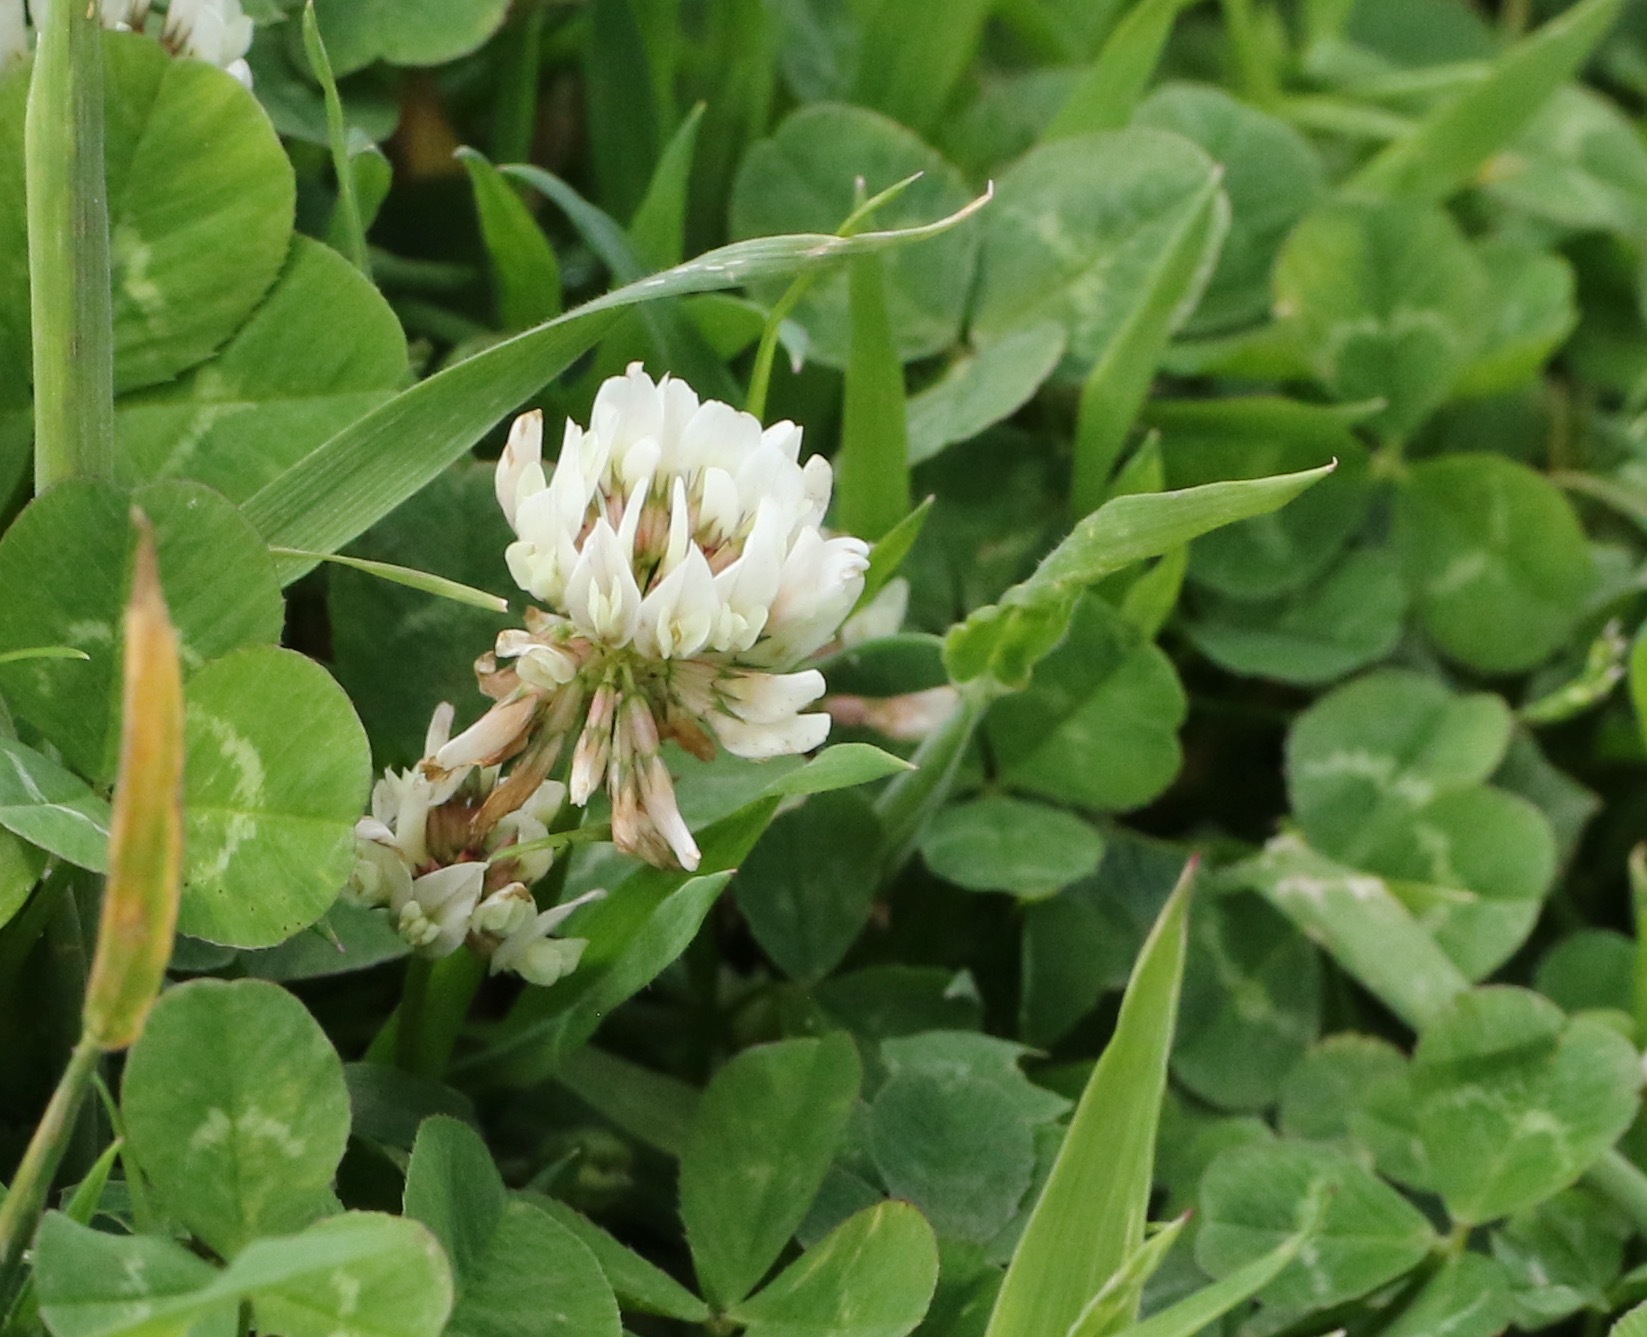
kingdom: Plantae
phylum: Tracheophyta
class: Magnoliopsida
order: Fabales
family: Fabaceae
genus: Trifolium
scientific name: Trifolium repens
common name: White clover
